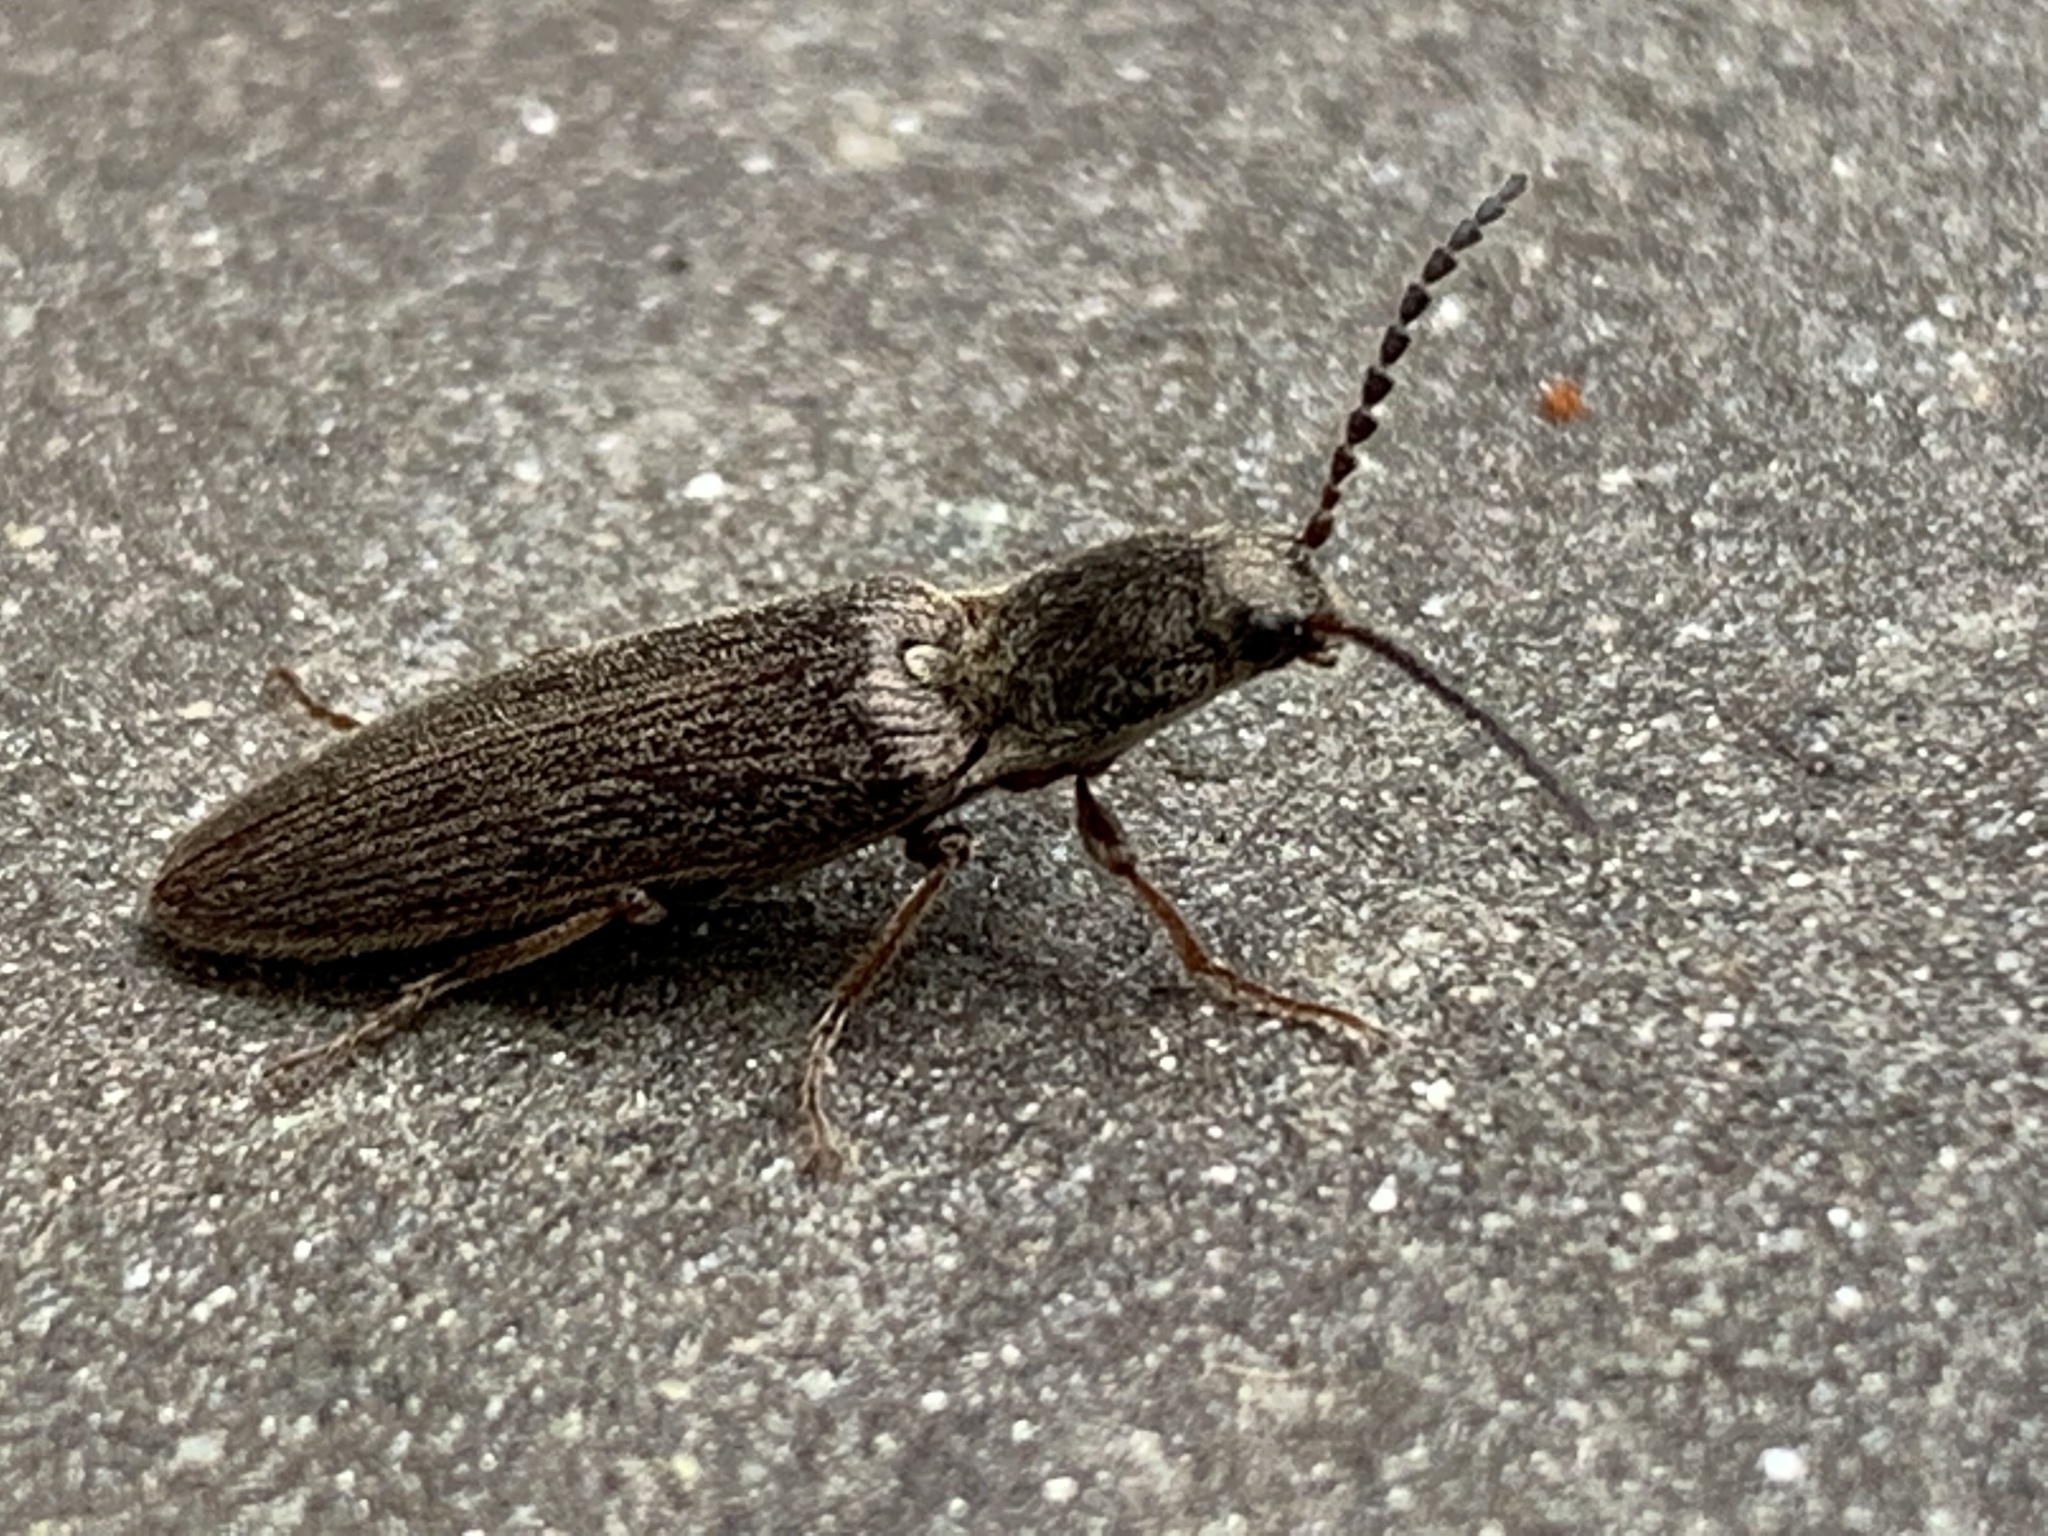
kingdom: Animalia
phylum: Arthropoda
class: Insecta
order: Coleoptera
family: Elateridae
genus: Sylvanelater
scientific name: Sylvanelater cylindriformis
